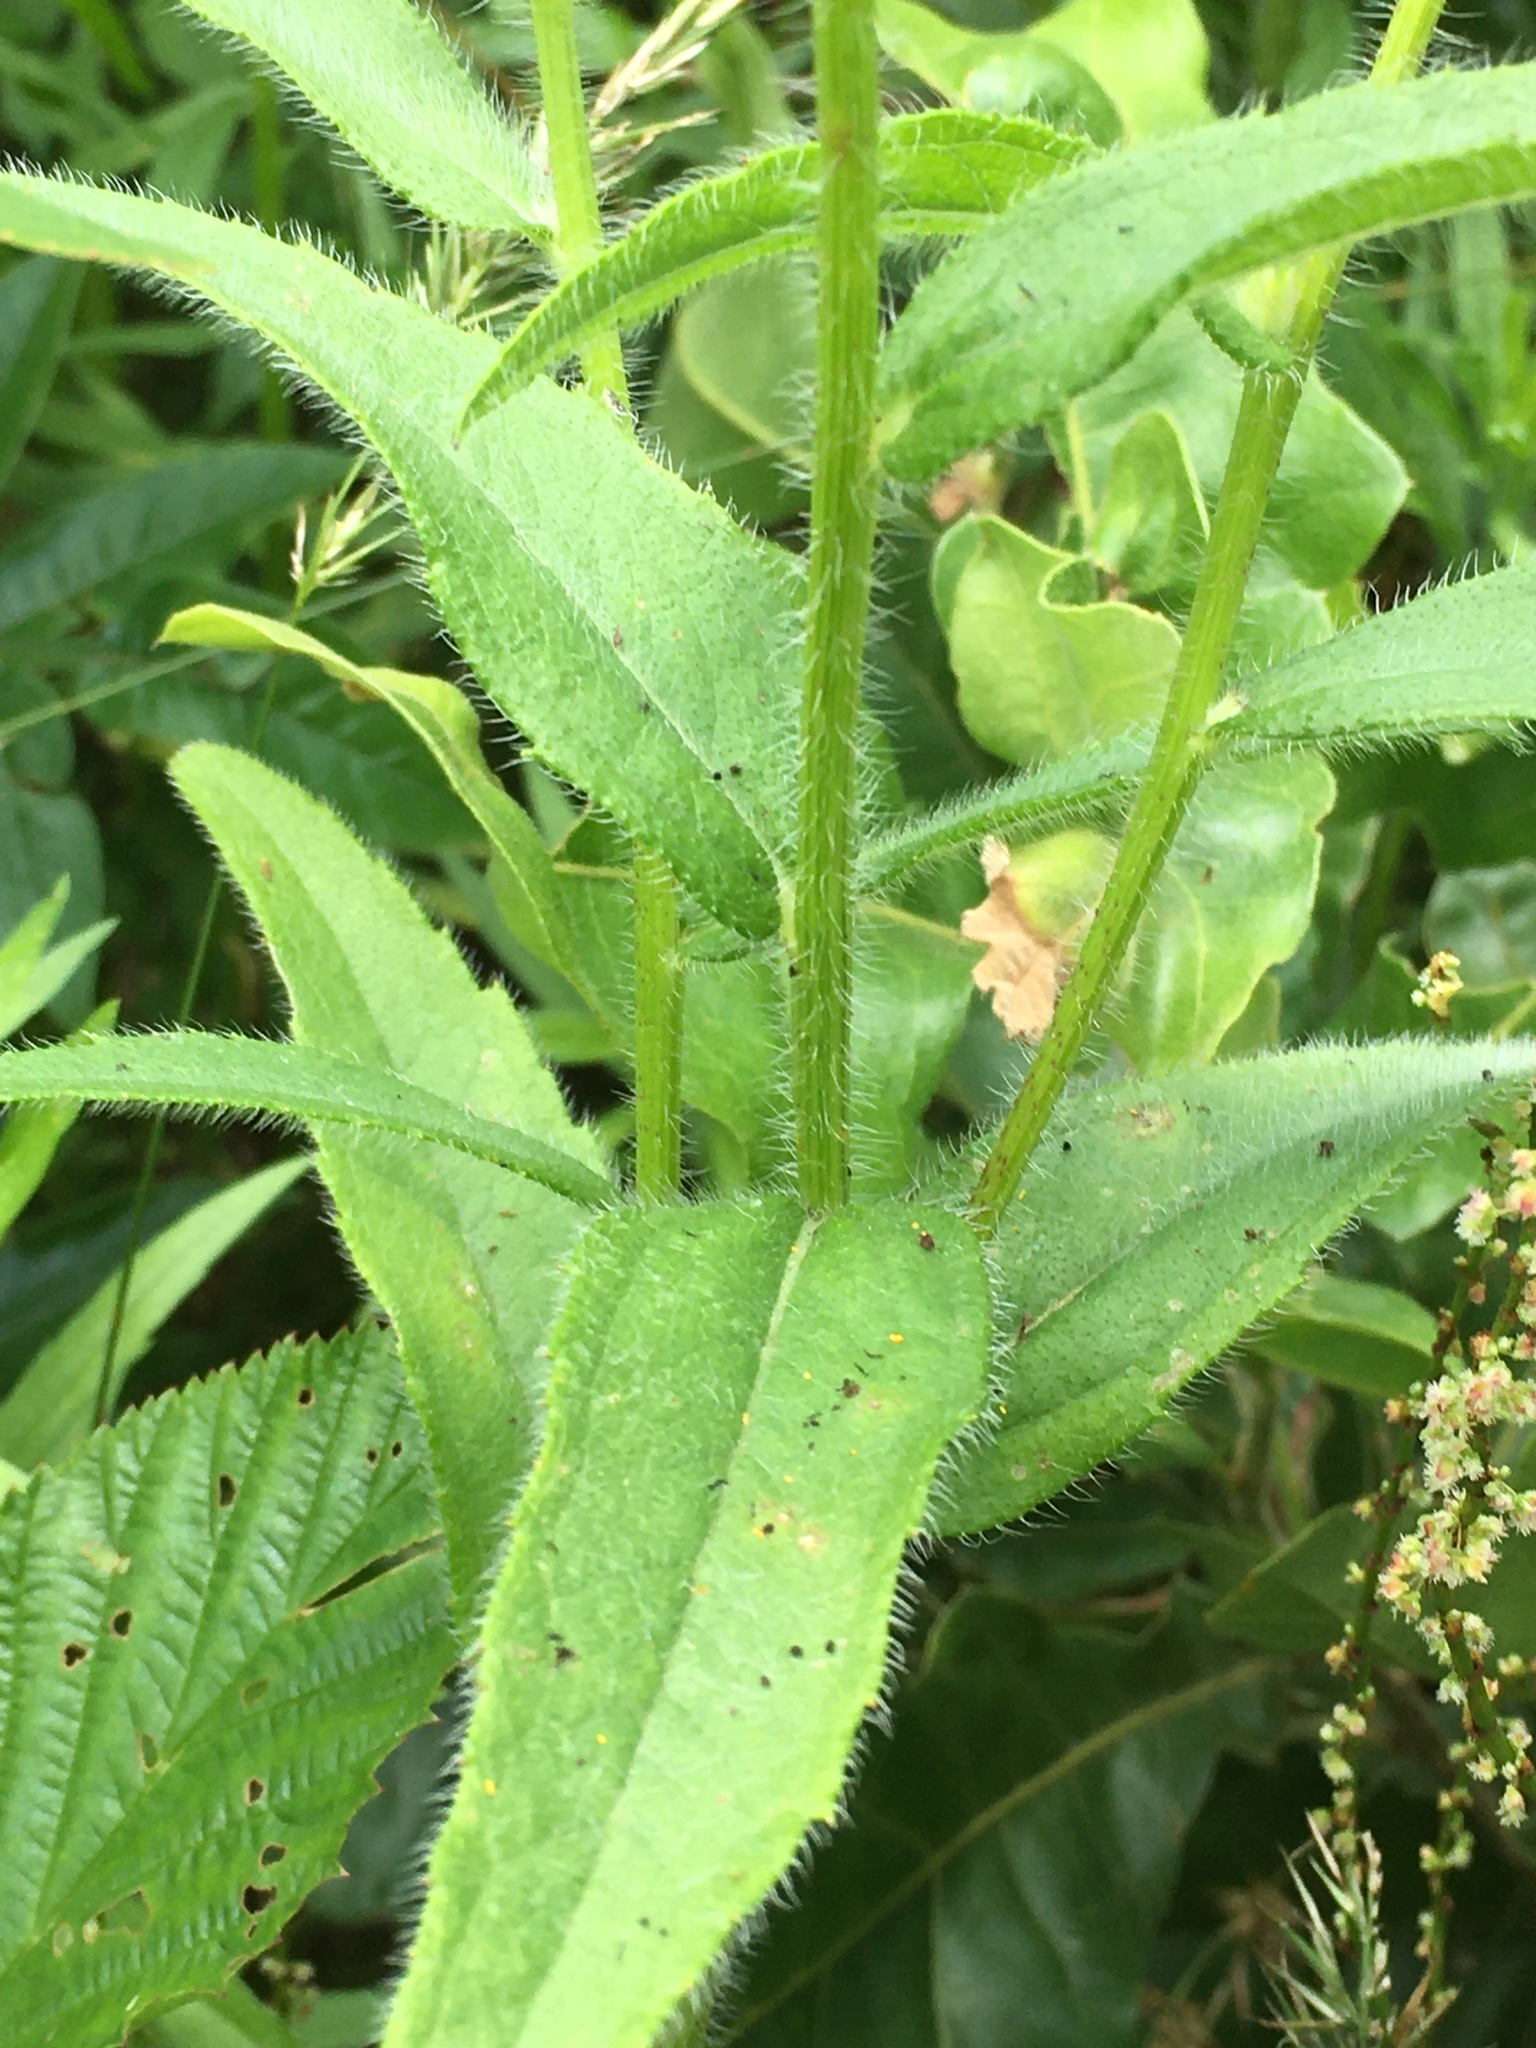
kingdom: Plantae
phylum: Tracheophyta
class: Magnoliopsida
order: Asterales
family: Asteraceae
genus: Rudbeckia
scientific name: Rudbeckia hirta
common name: Black-eyed-susan
